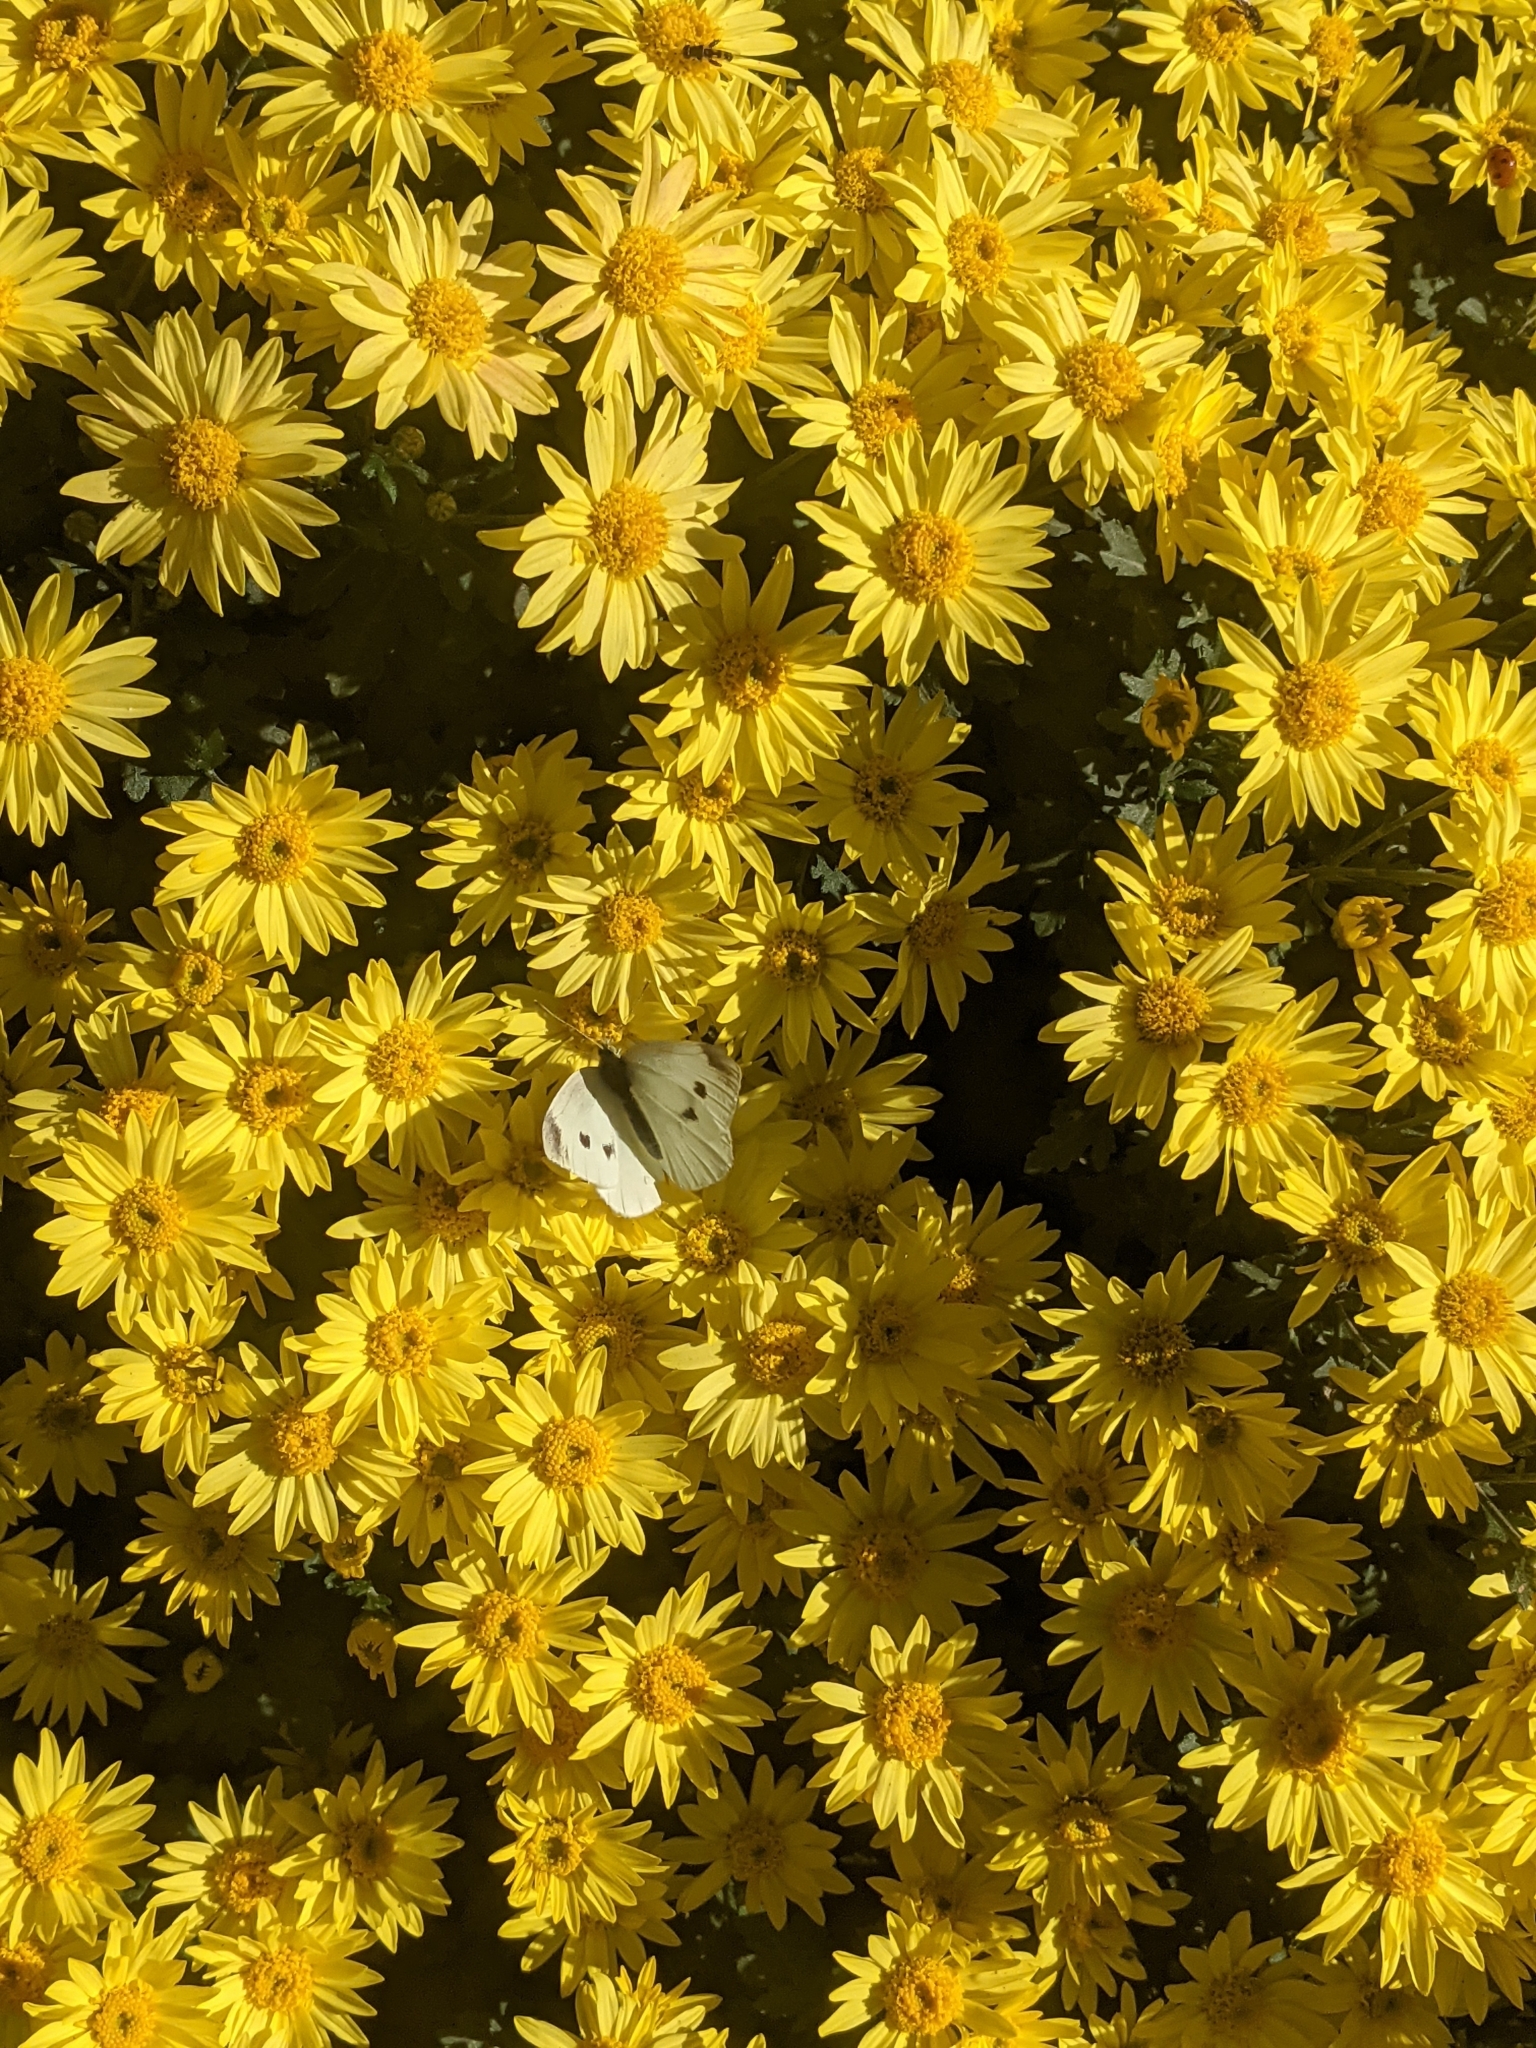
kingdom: Animalia
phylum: Arthropoda
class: Insecta
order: Lepidoptera
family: Pieridae
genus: Pieris
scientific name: Pieris rapae
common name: Small white
